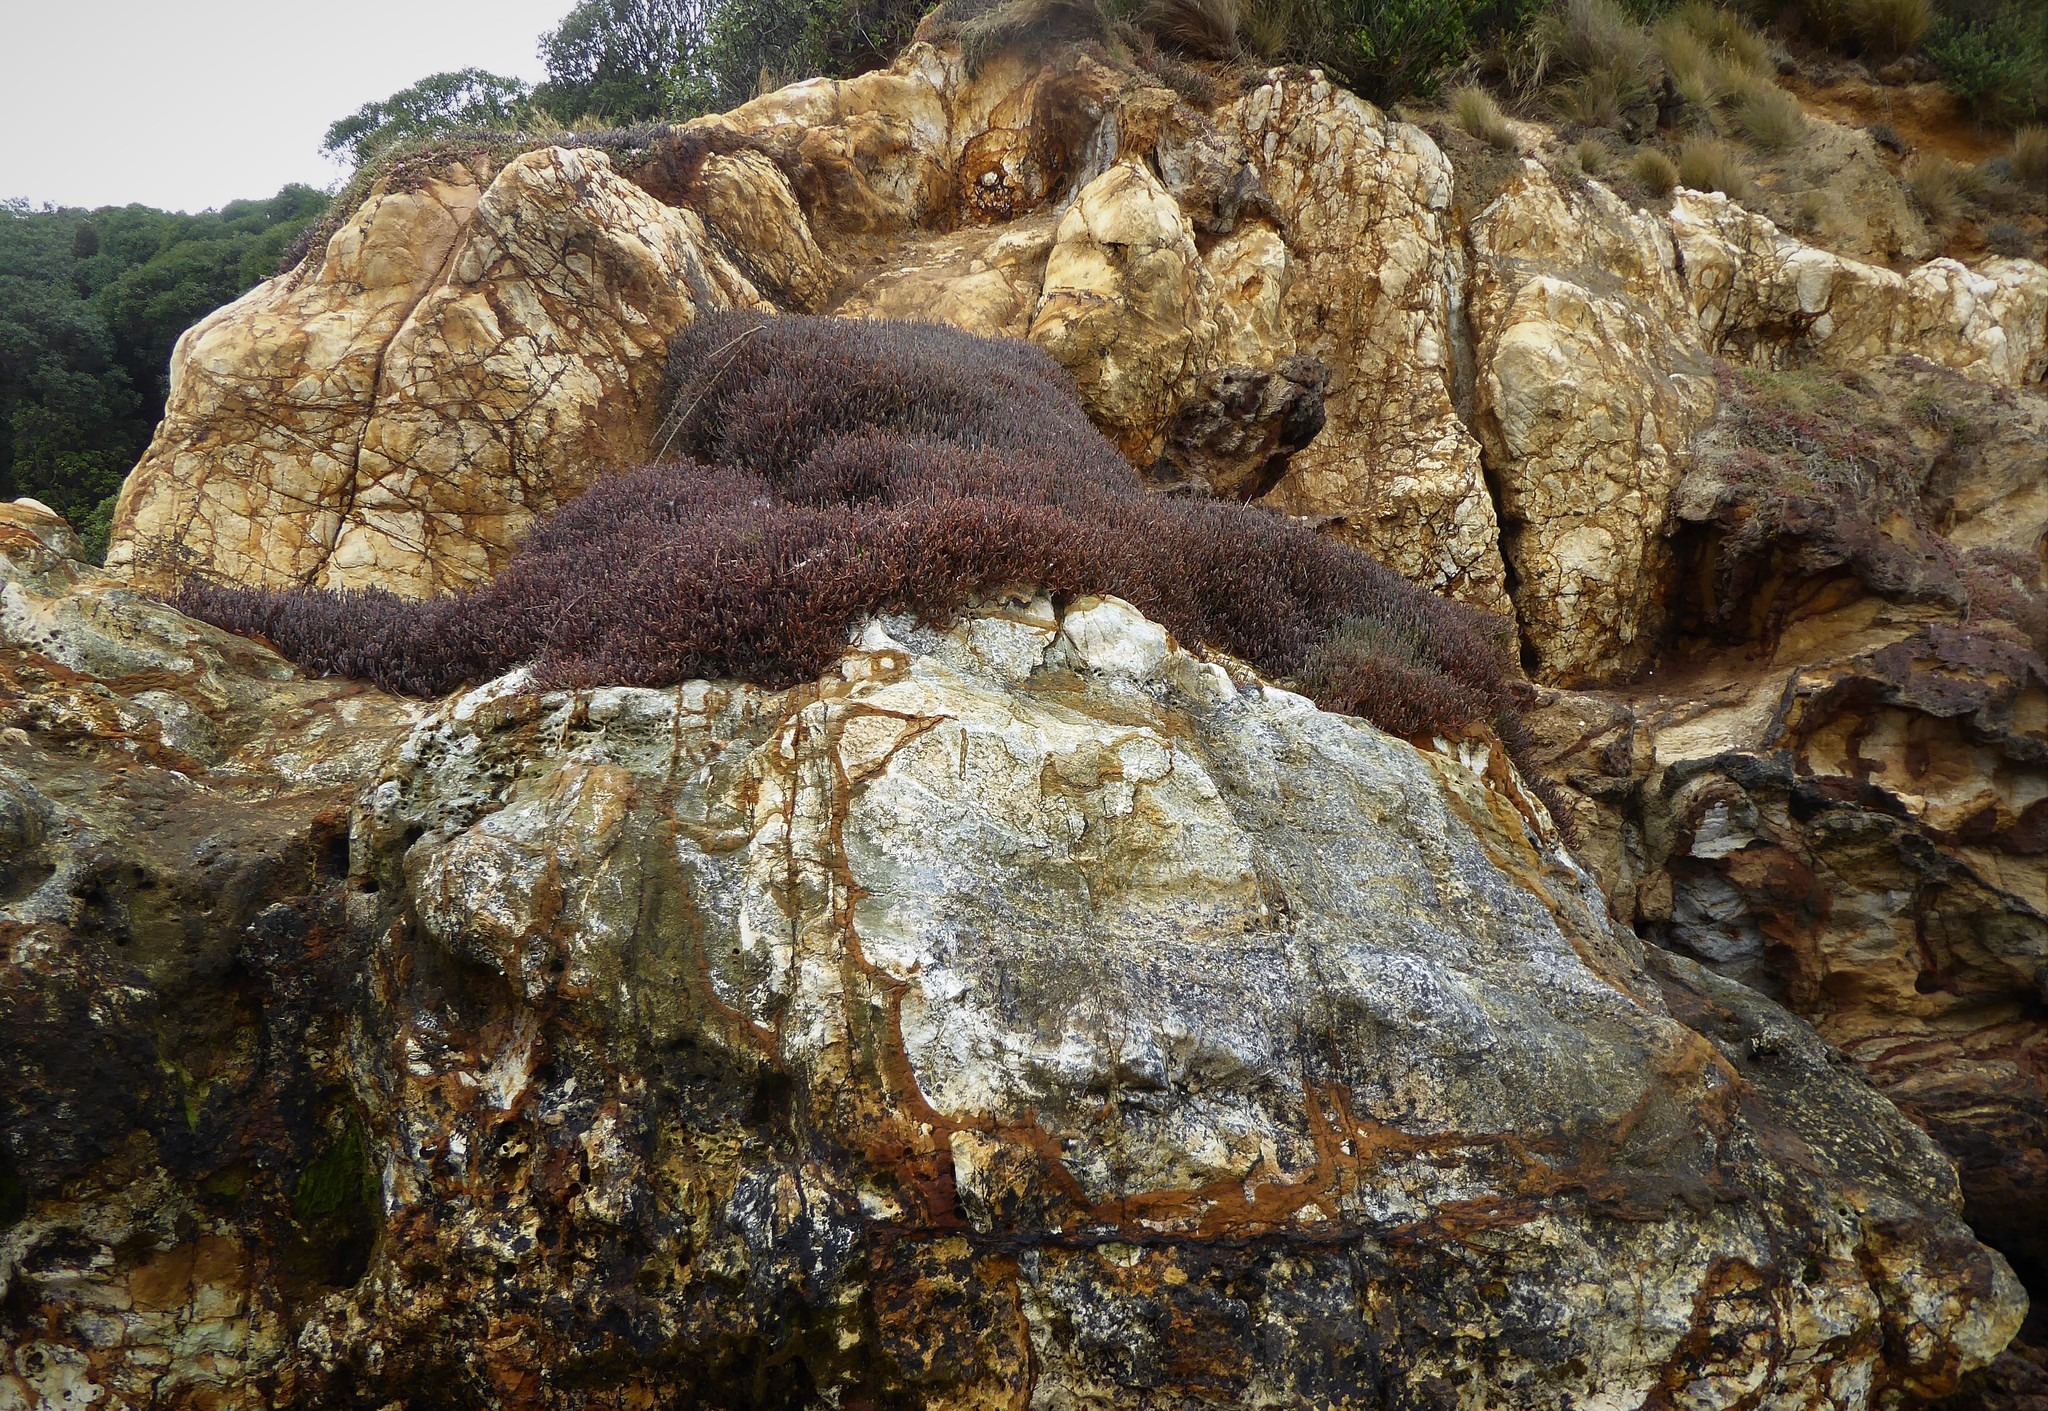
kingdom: Plantae
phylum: Tracheophyta
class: Magnoliopsida
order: Caryophyllales
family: Amaranthaceae
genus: Salicornia
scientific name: Salicornia quinqueflora
